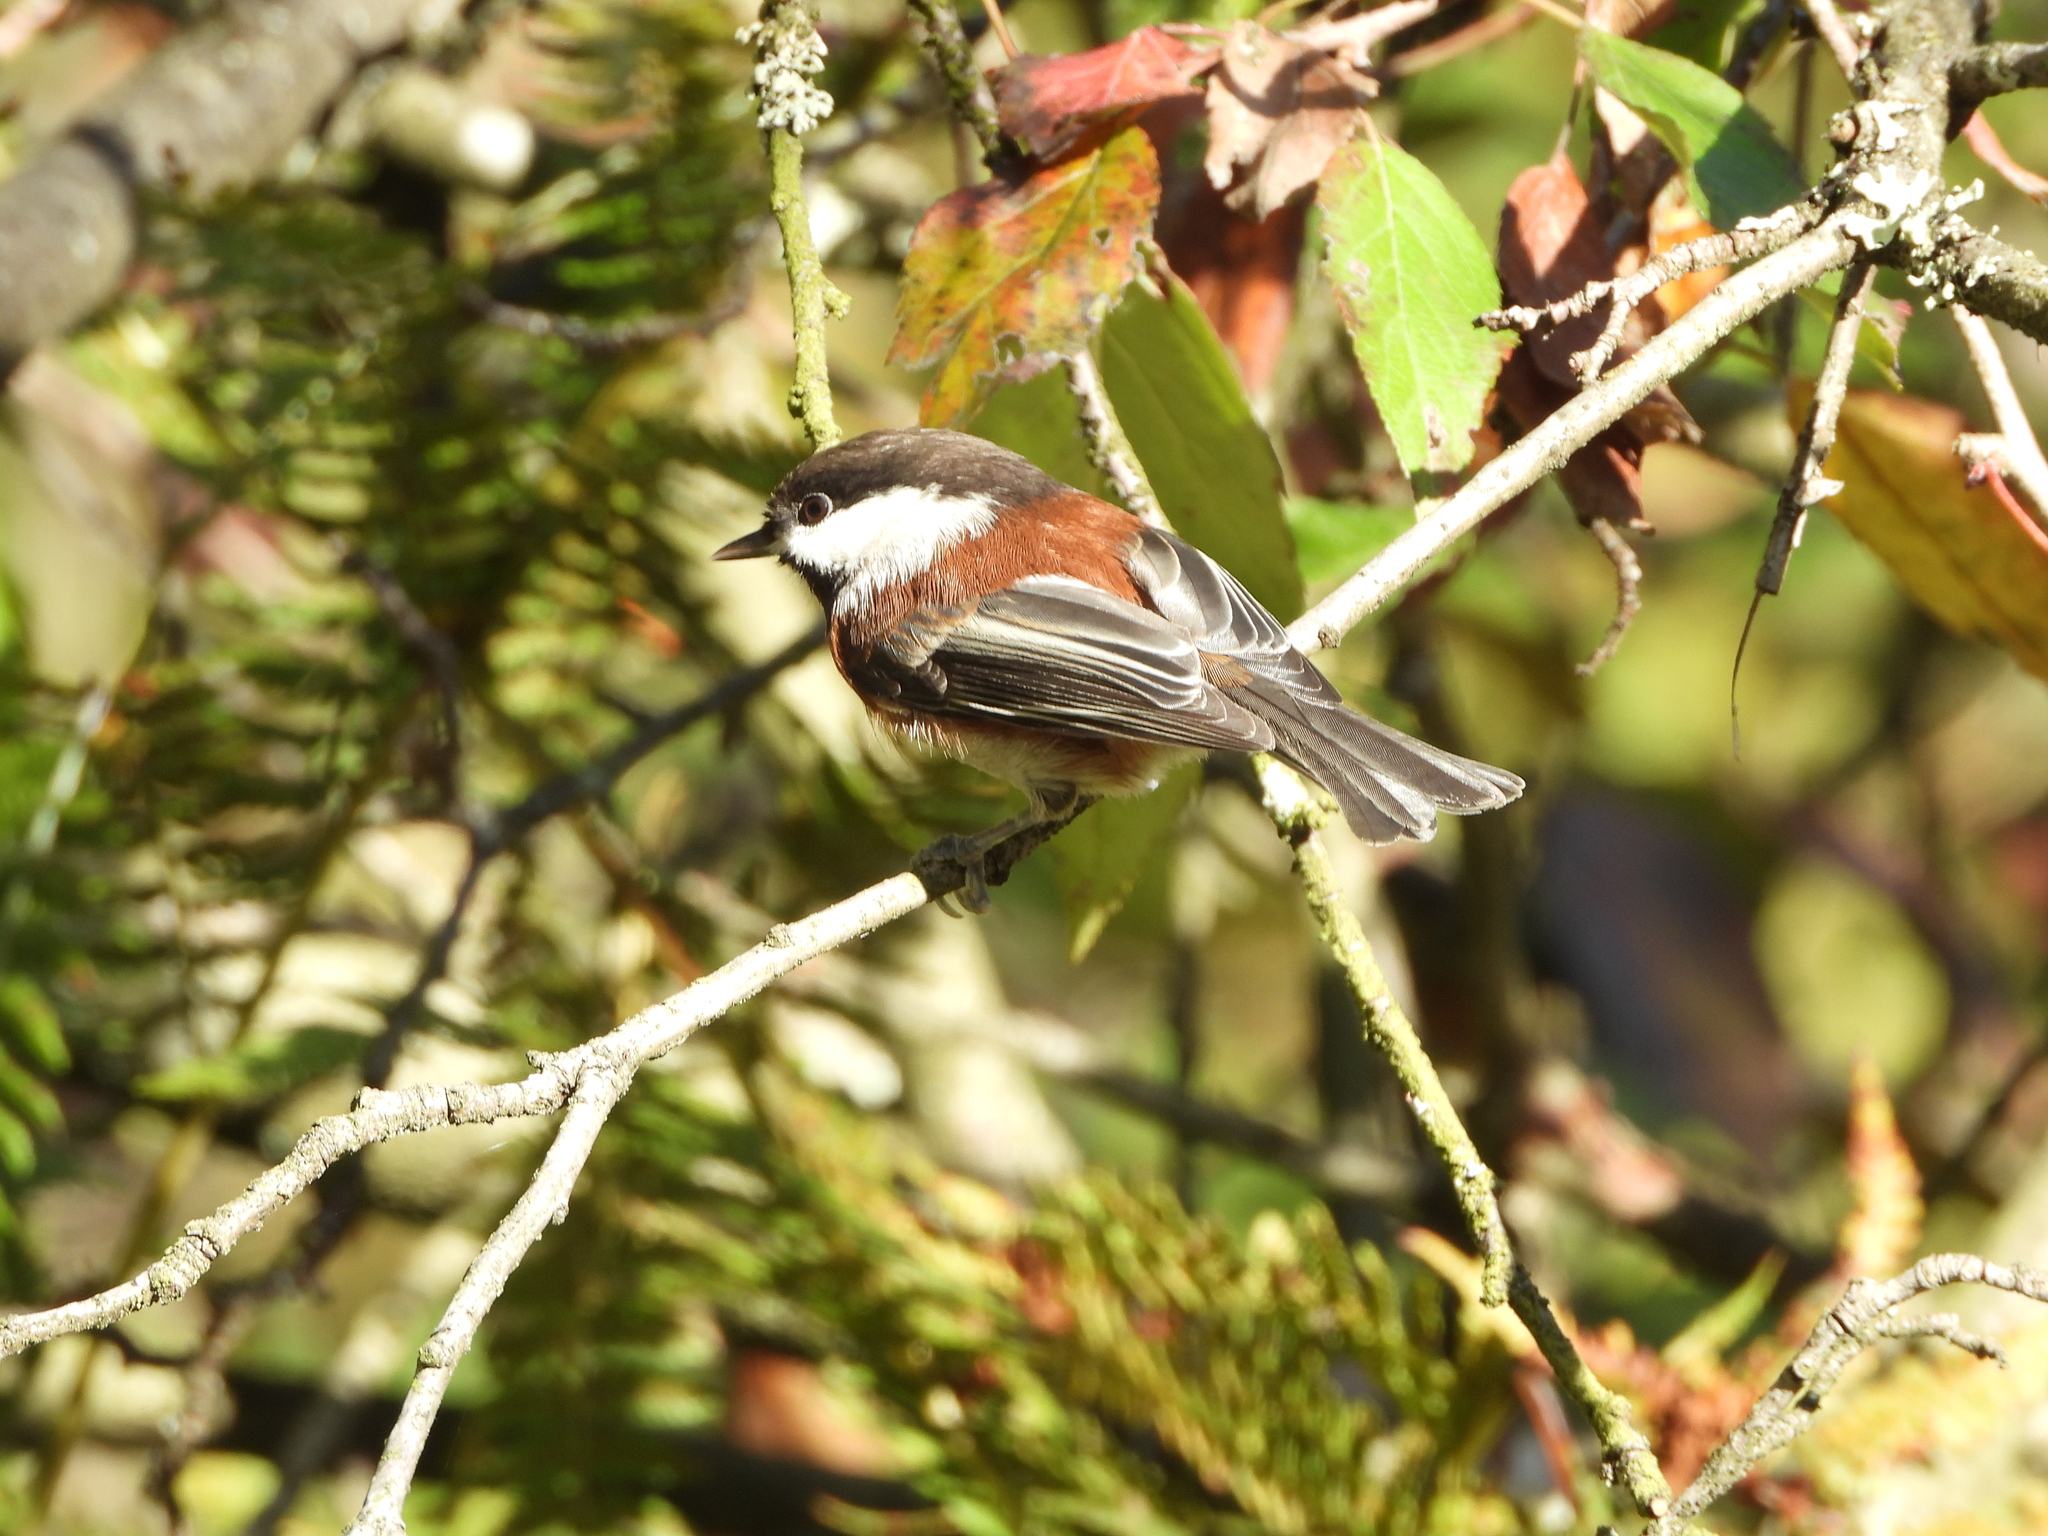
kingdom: Animalia
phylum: Chordata
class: Aves
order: Passeriformes
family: Paridae
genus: Poecile
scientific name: Poecile rufescens
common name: Chestnut-backed chickadee
